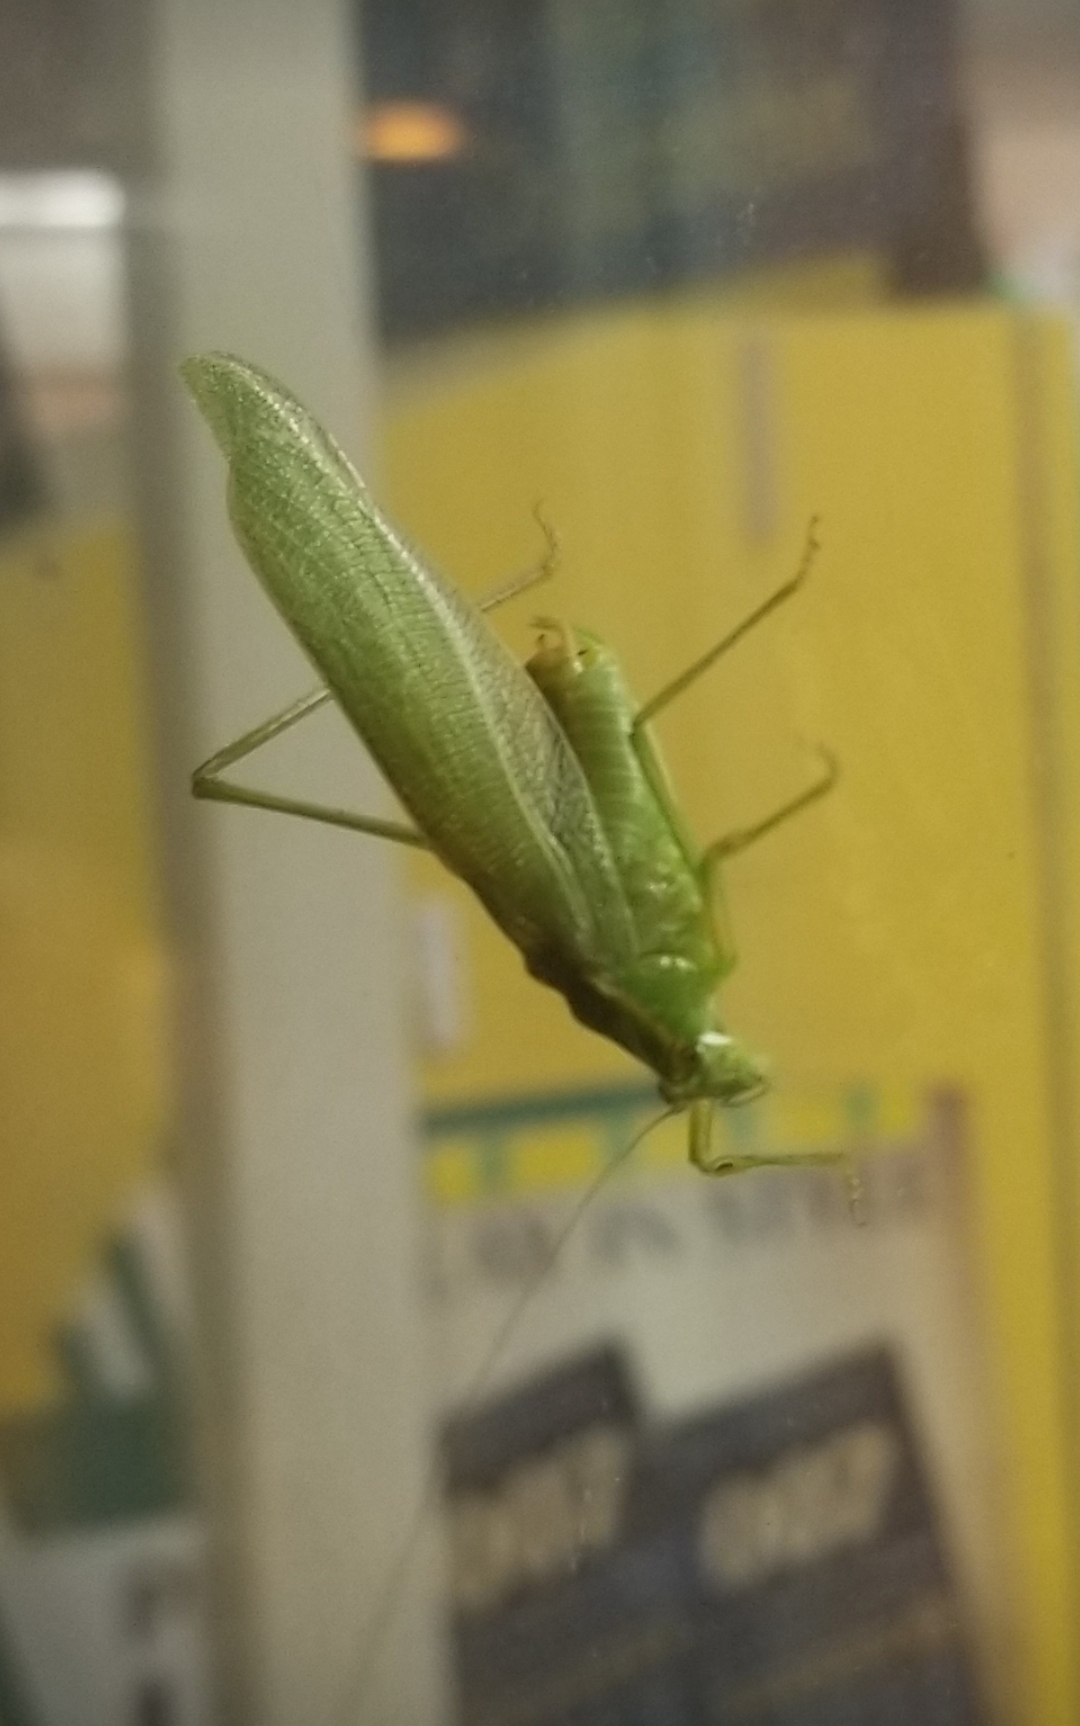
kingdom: Animalia
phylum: Arthropoda
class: Insecta
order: Orthoptera
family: Tettigoniidae
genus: Scudderia
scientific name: Scudderia septentrionalis
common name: Northern bush-katydid
